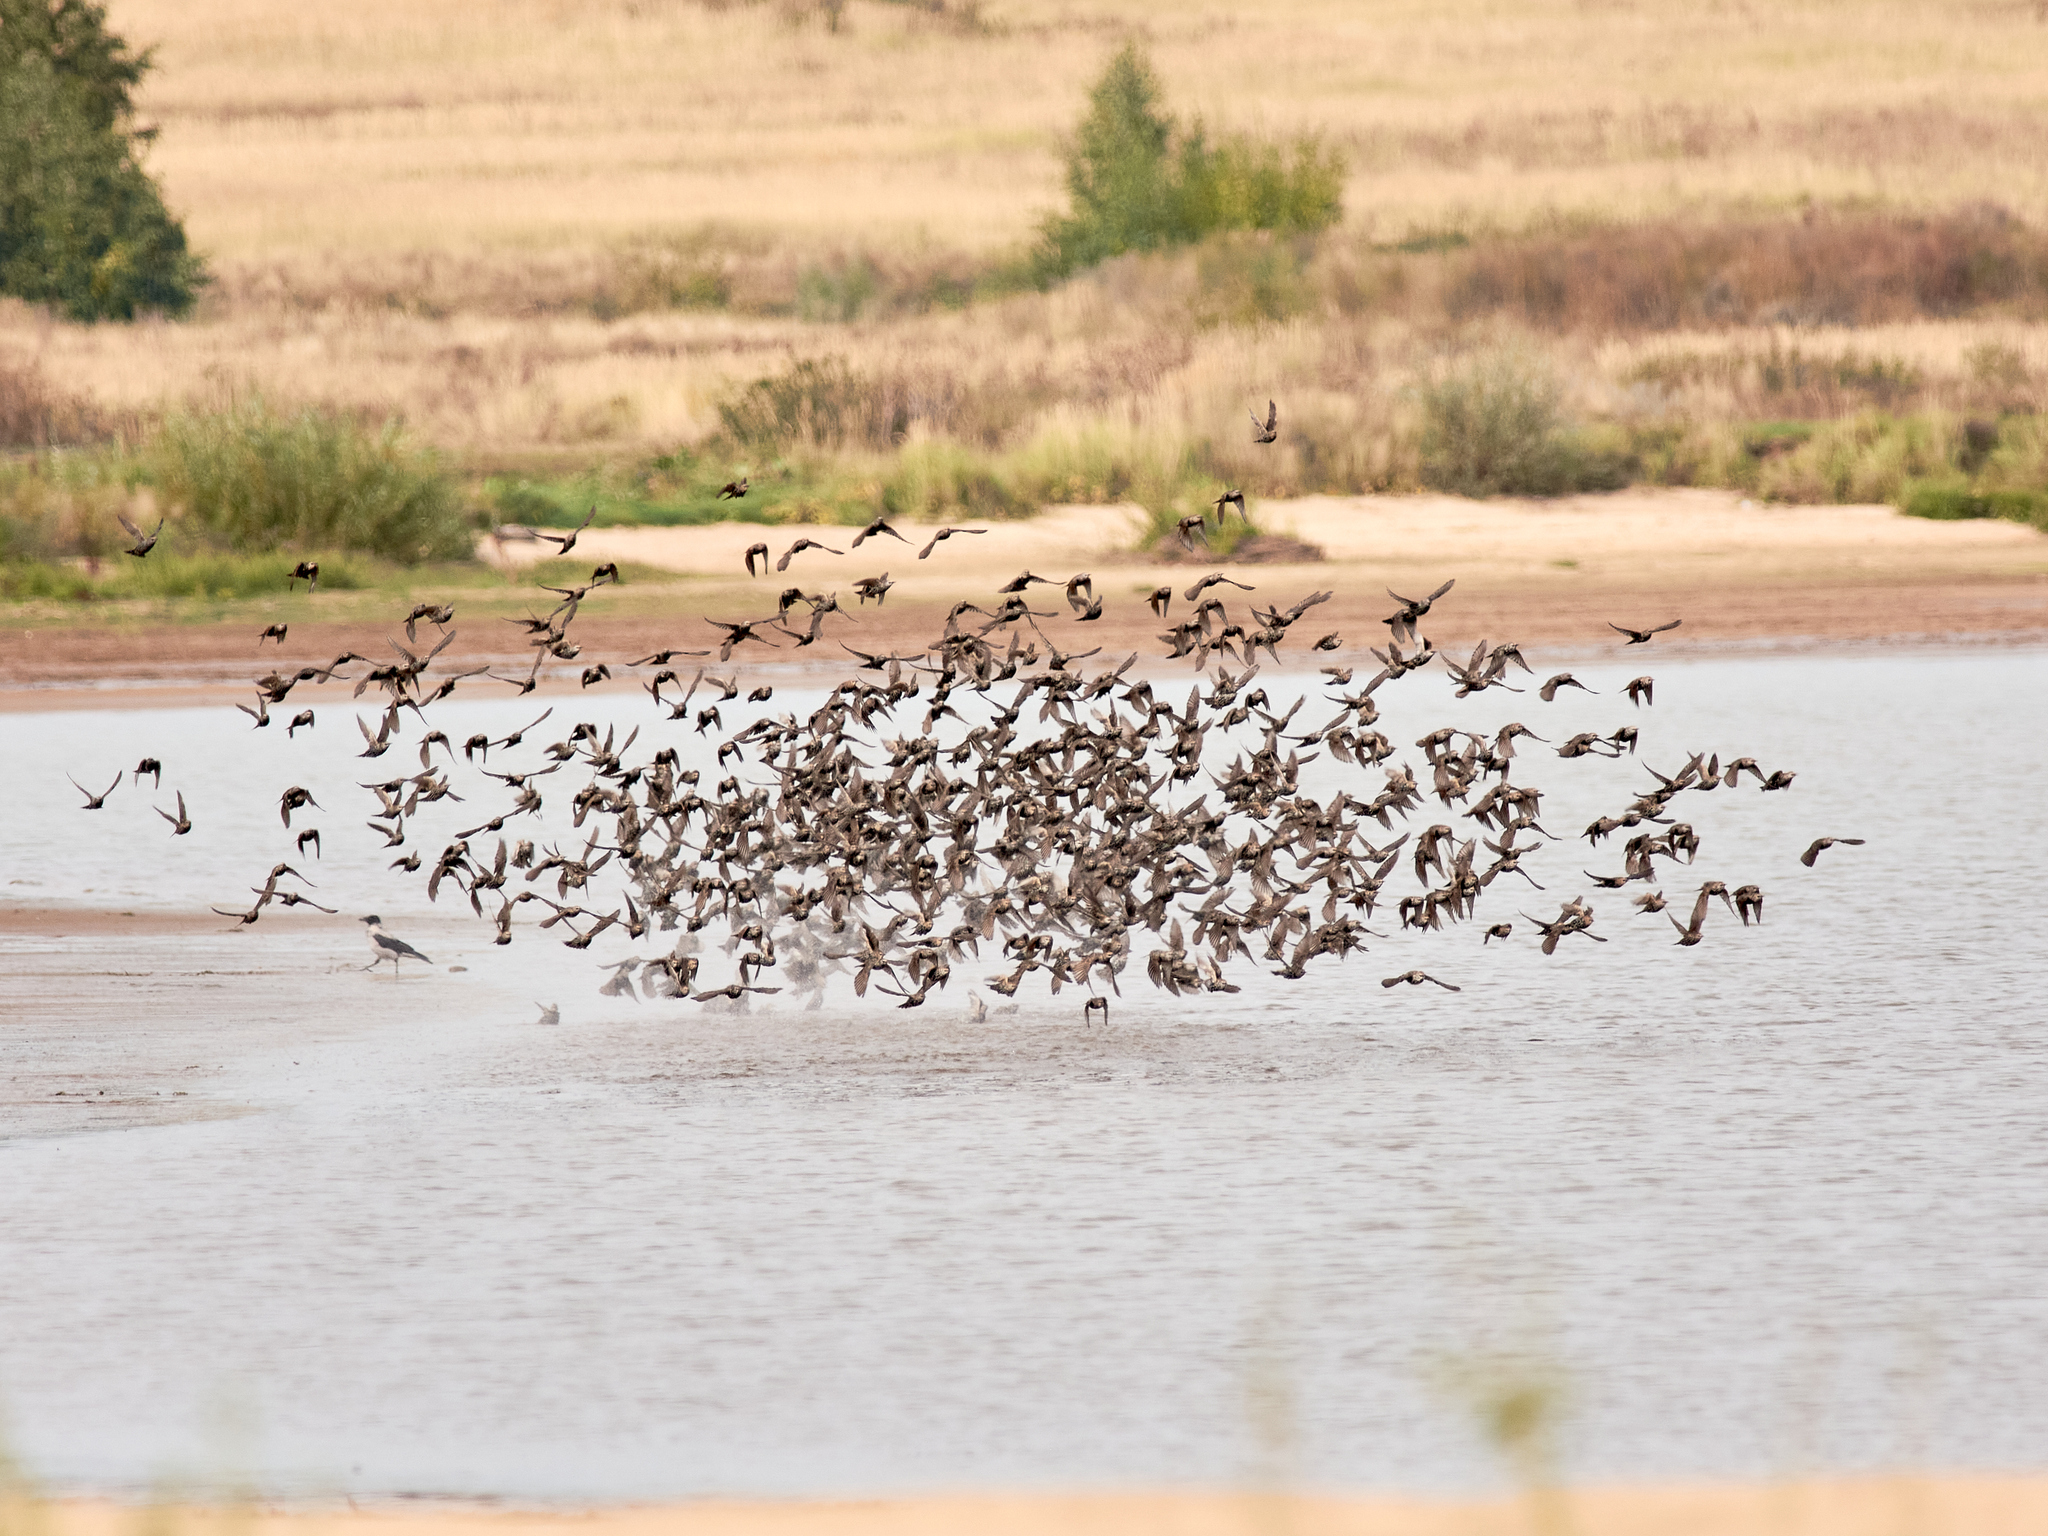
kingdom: Animalia
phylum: Chordata
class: Aves
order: Passeriformes
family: Sturnidae
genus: Sturnus
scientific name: Sturnus vulgaris
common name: Common starling
